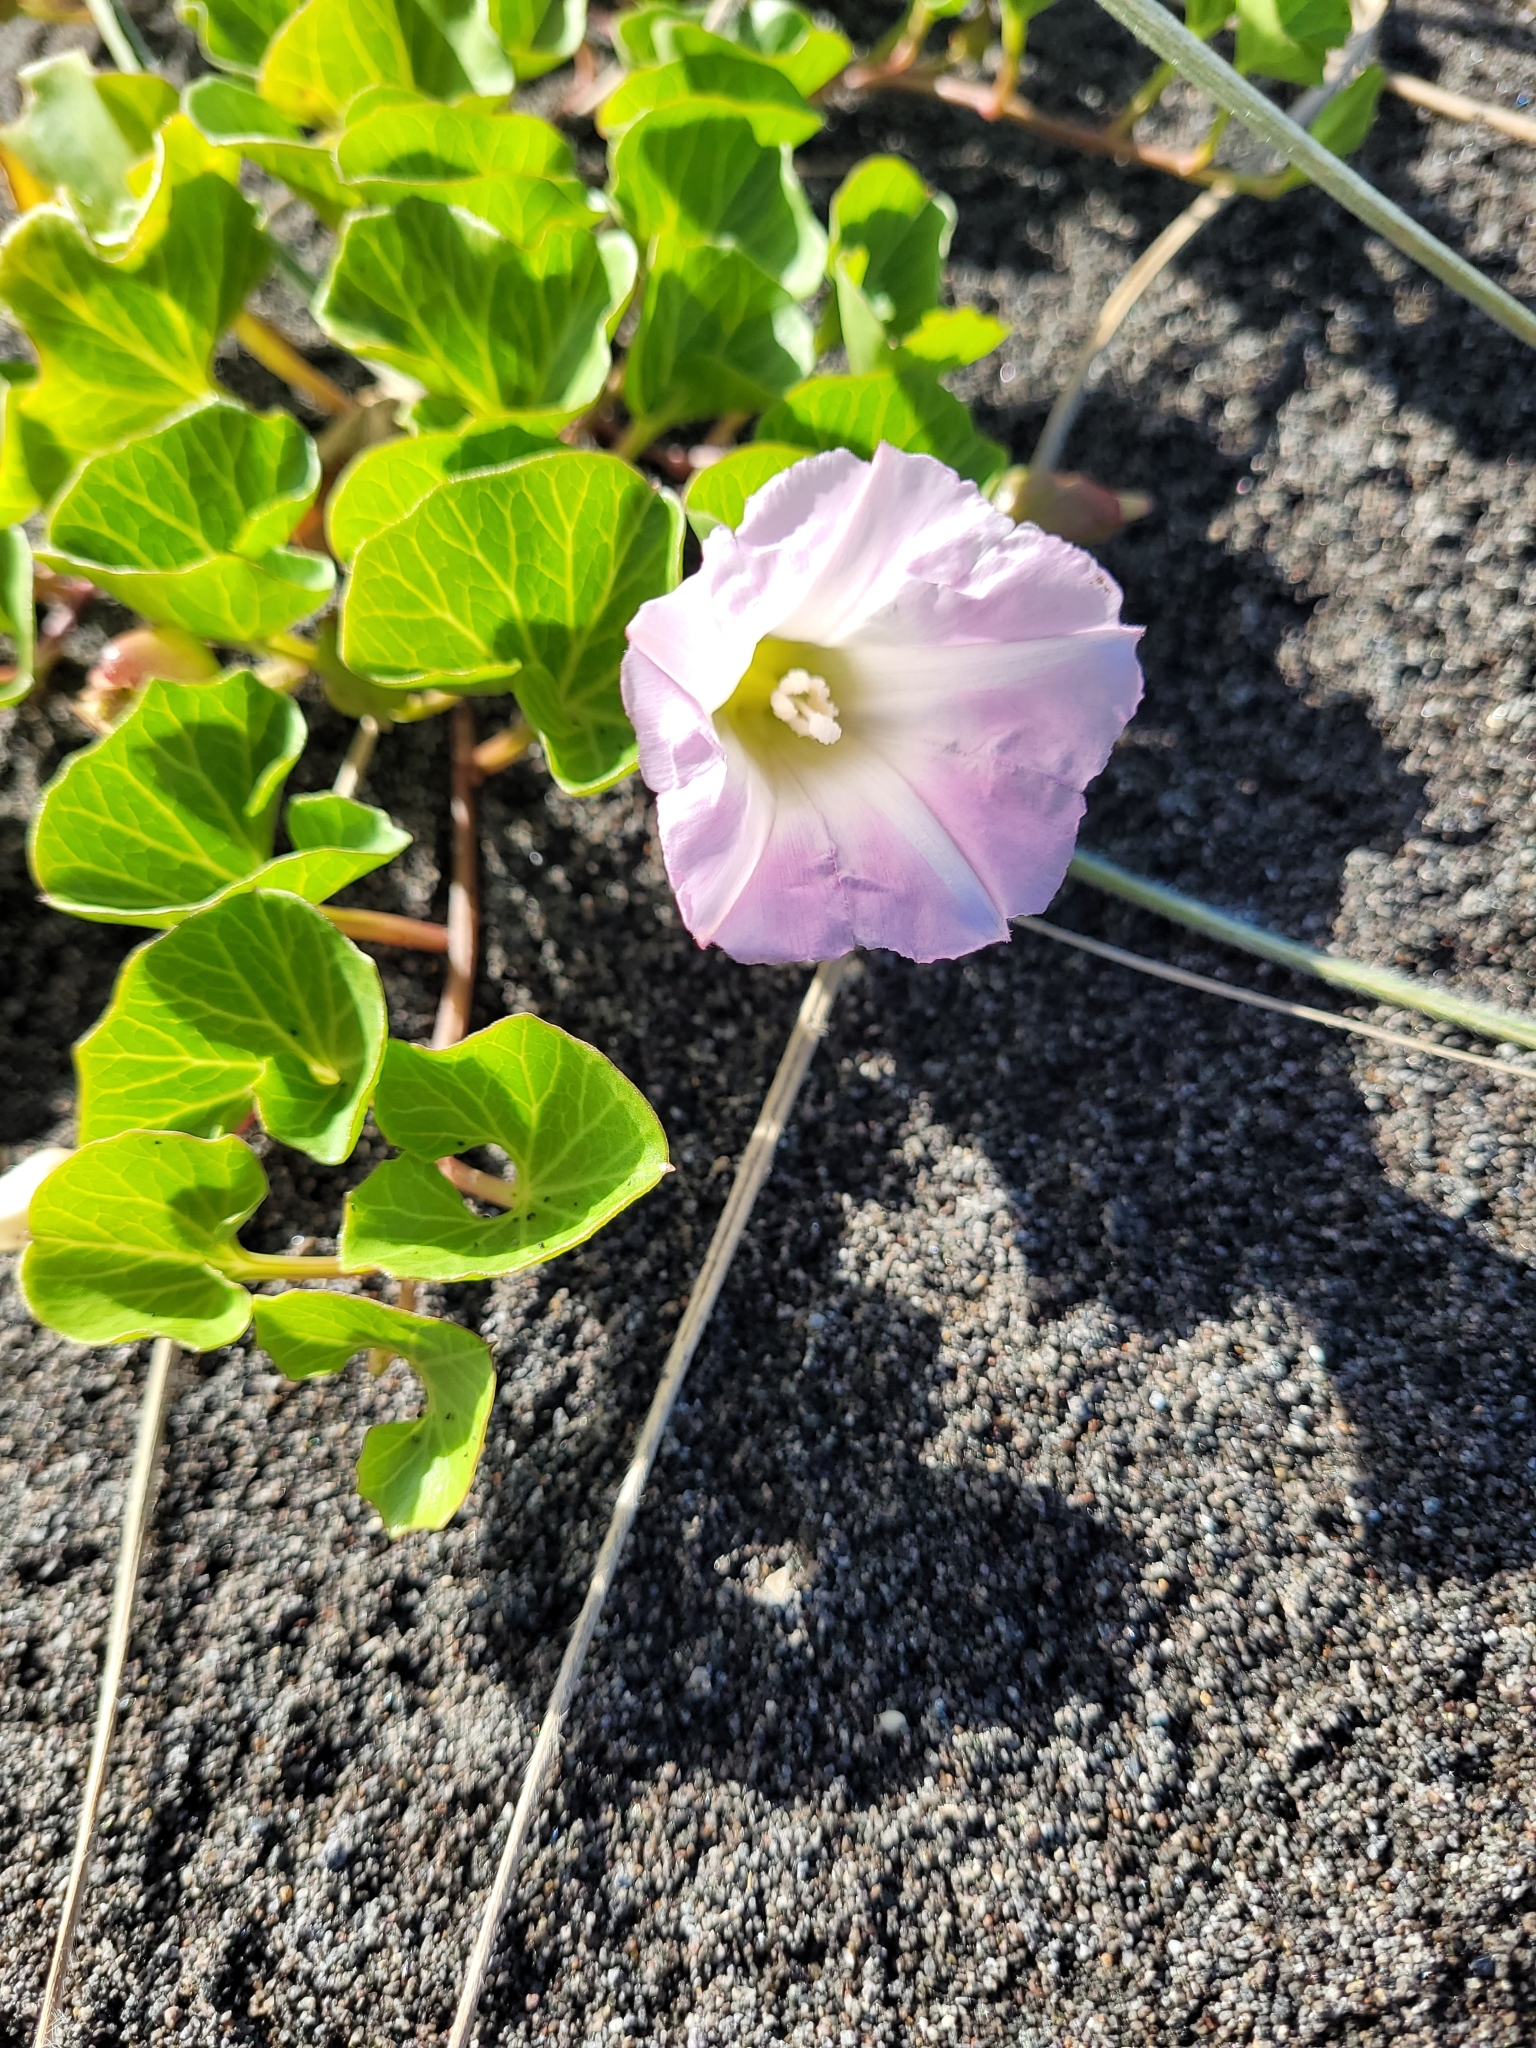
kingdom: Plantae
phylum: Tracheophyta
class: Magnoliopsida
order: Solanales
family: Convolvulaceae
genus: Calystegia
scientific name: Calystegia soldanella
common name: Sea bindweed
